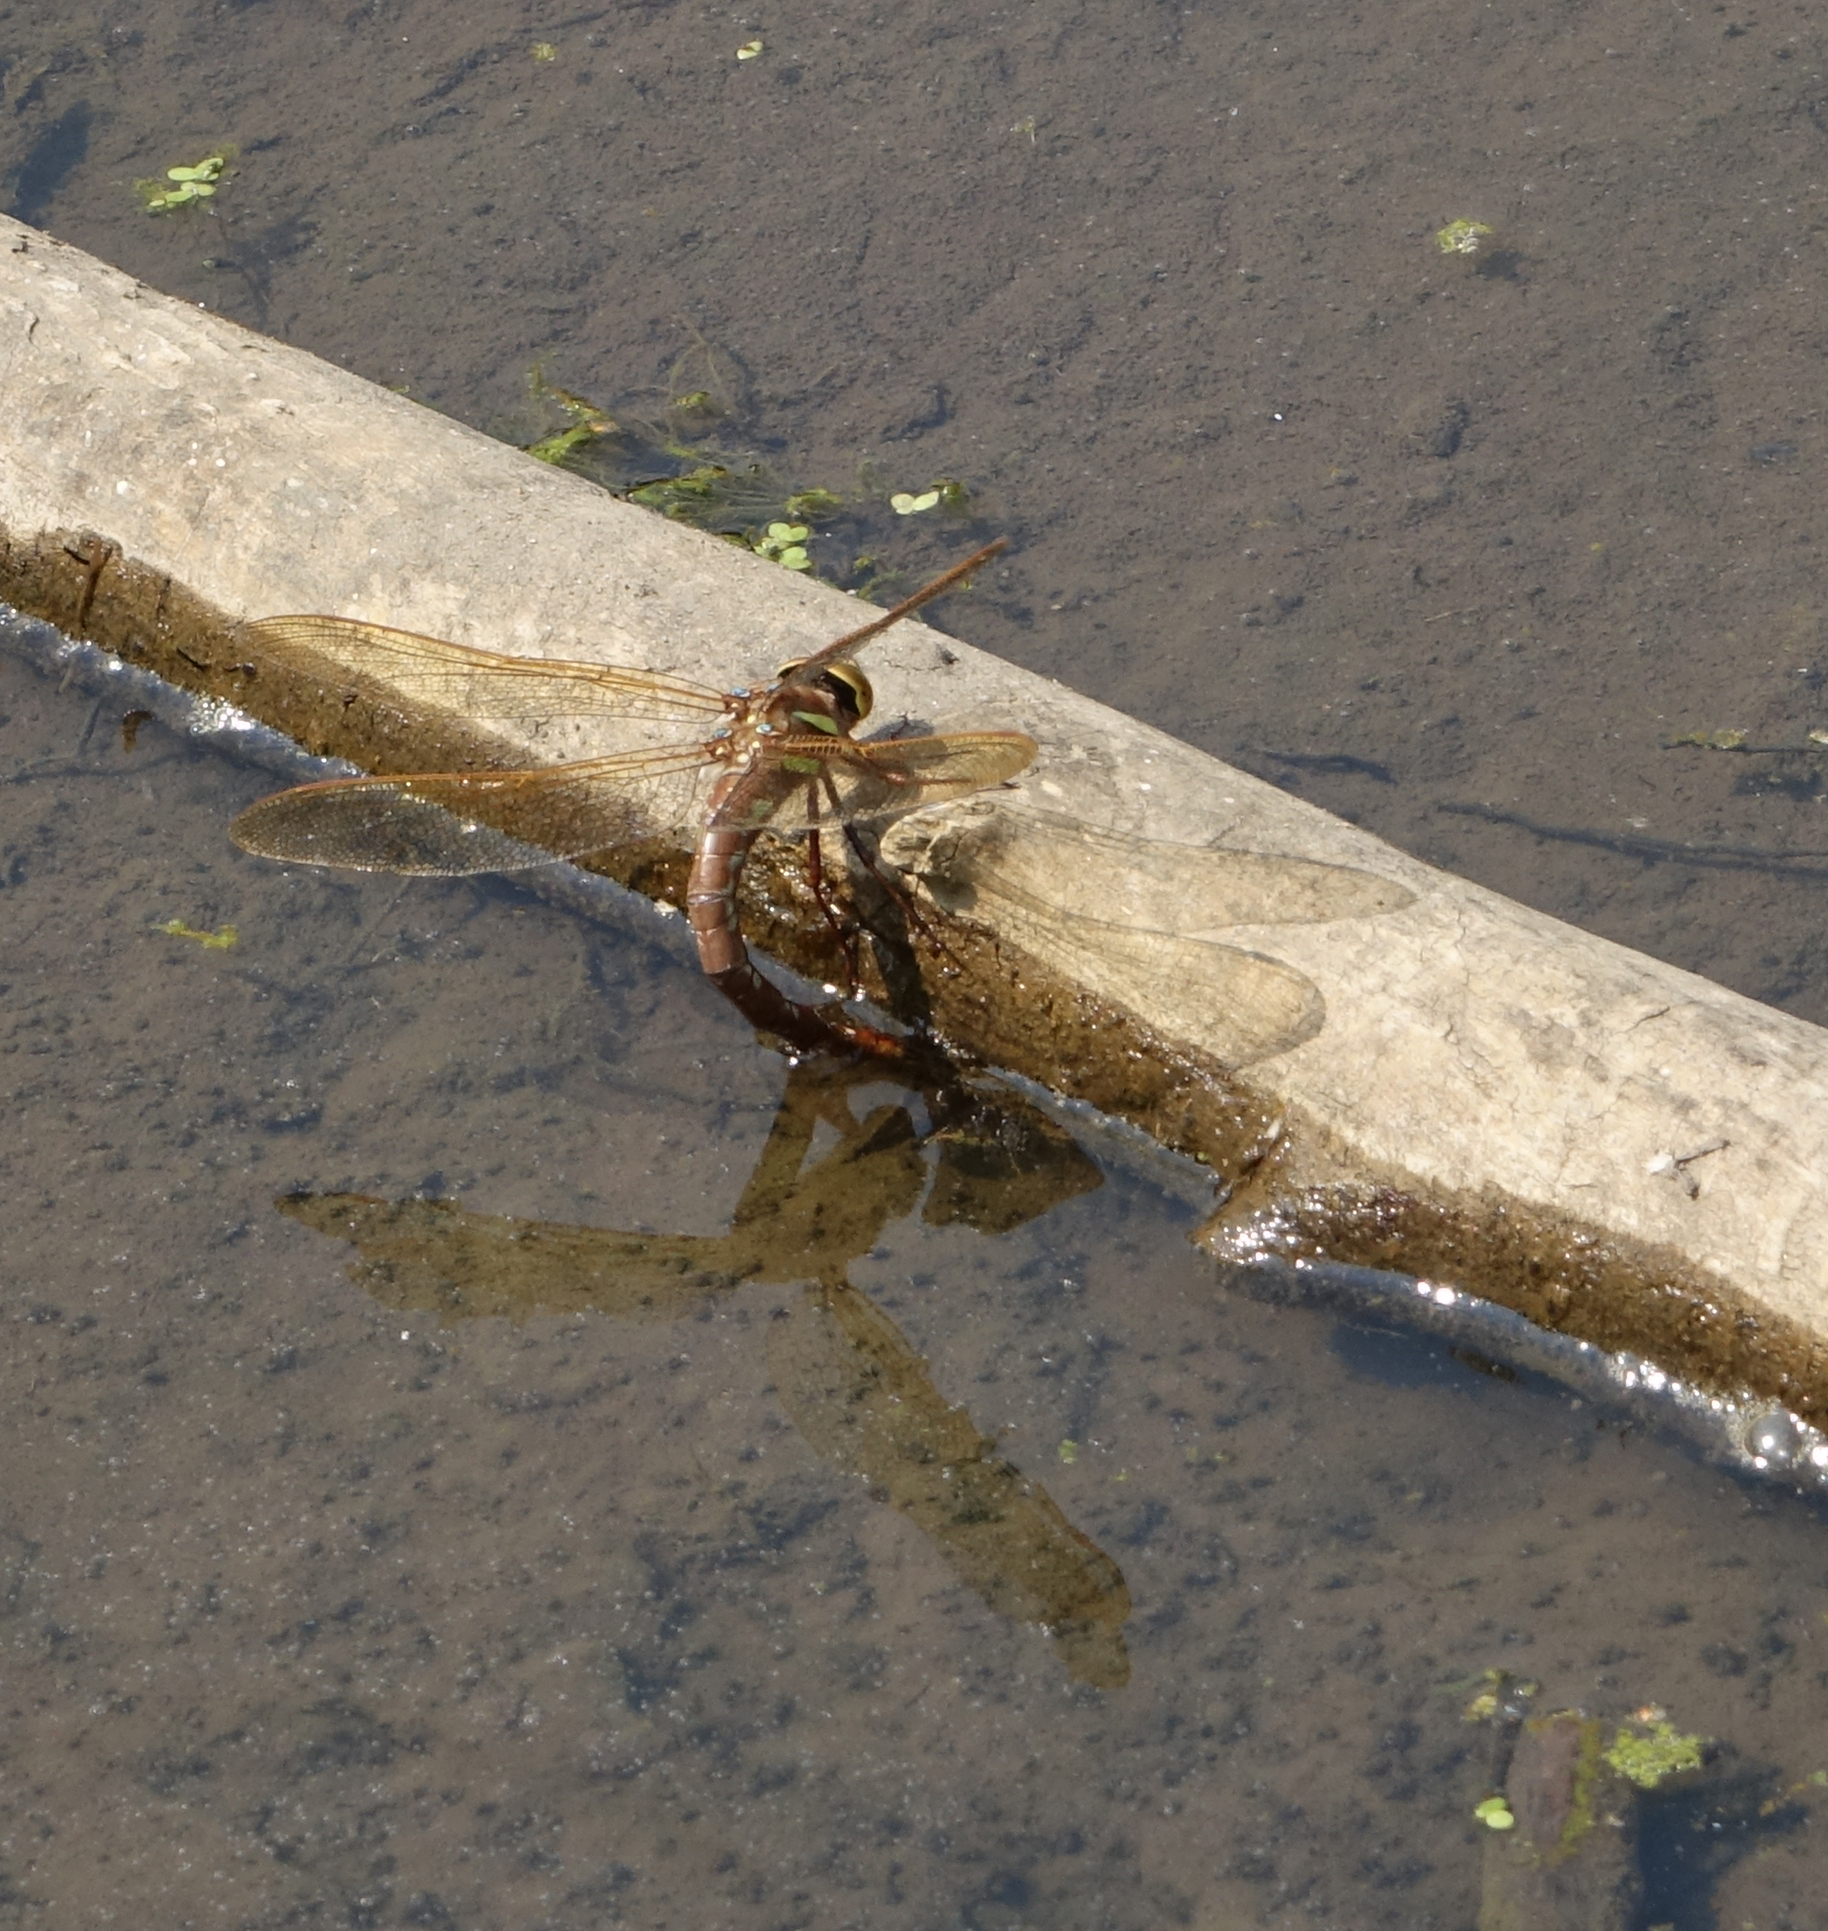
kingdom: Animalia
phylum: Arthropoda
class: Insecta
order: Odonata
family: Aeshnidae
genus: Aeshna
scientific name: Aeshna grandis
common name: Brown hawker
